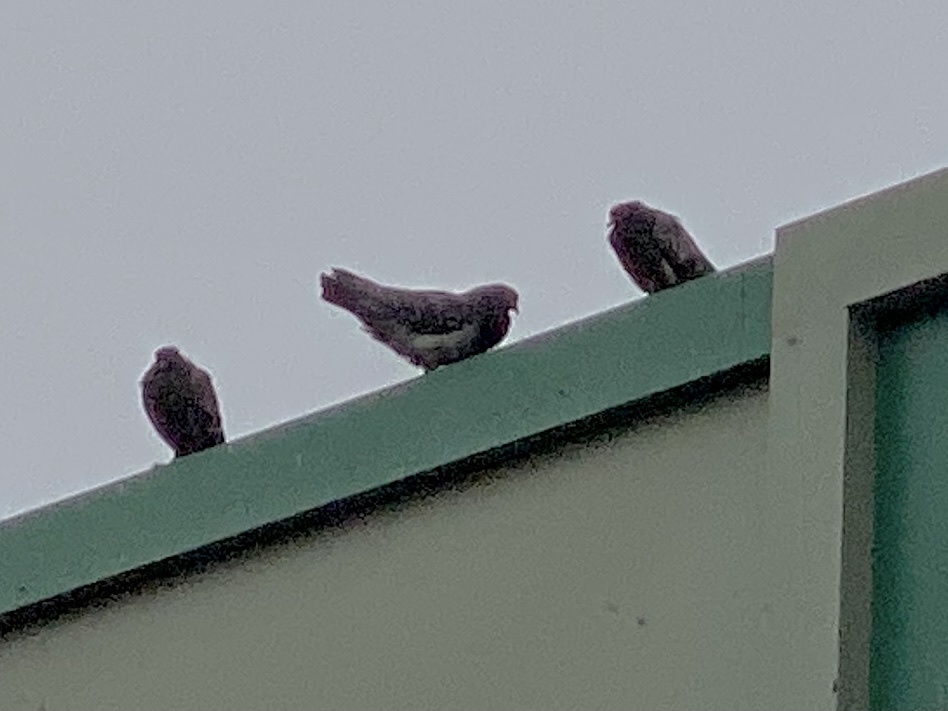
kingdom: Animalia
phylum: Chordata
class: Aves
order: Columbiformes
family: Columbidae
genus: Columba
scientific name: Columba livia
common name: Rock pigeon
